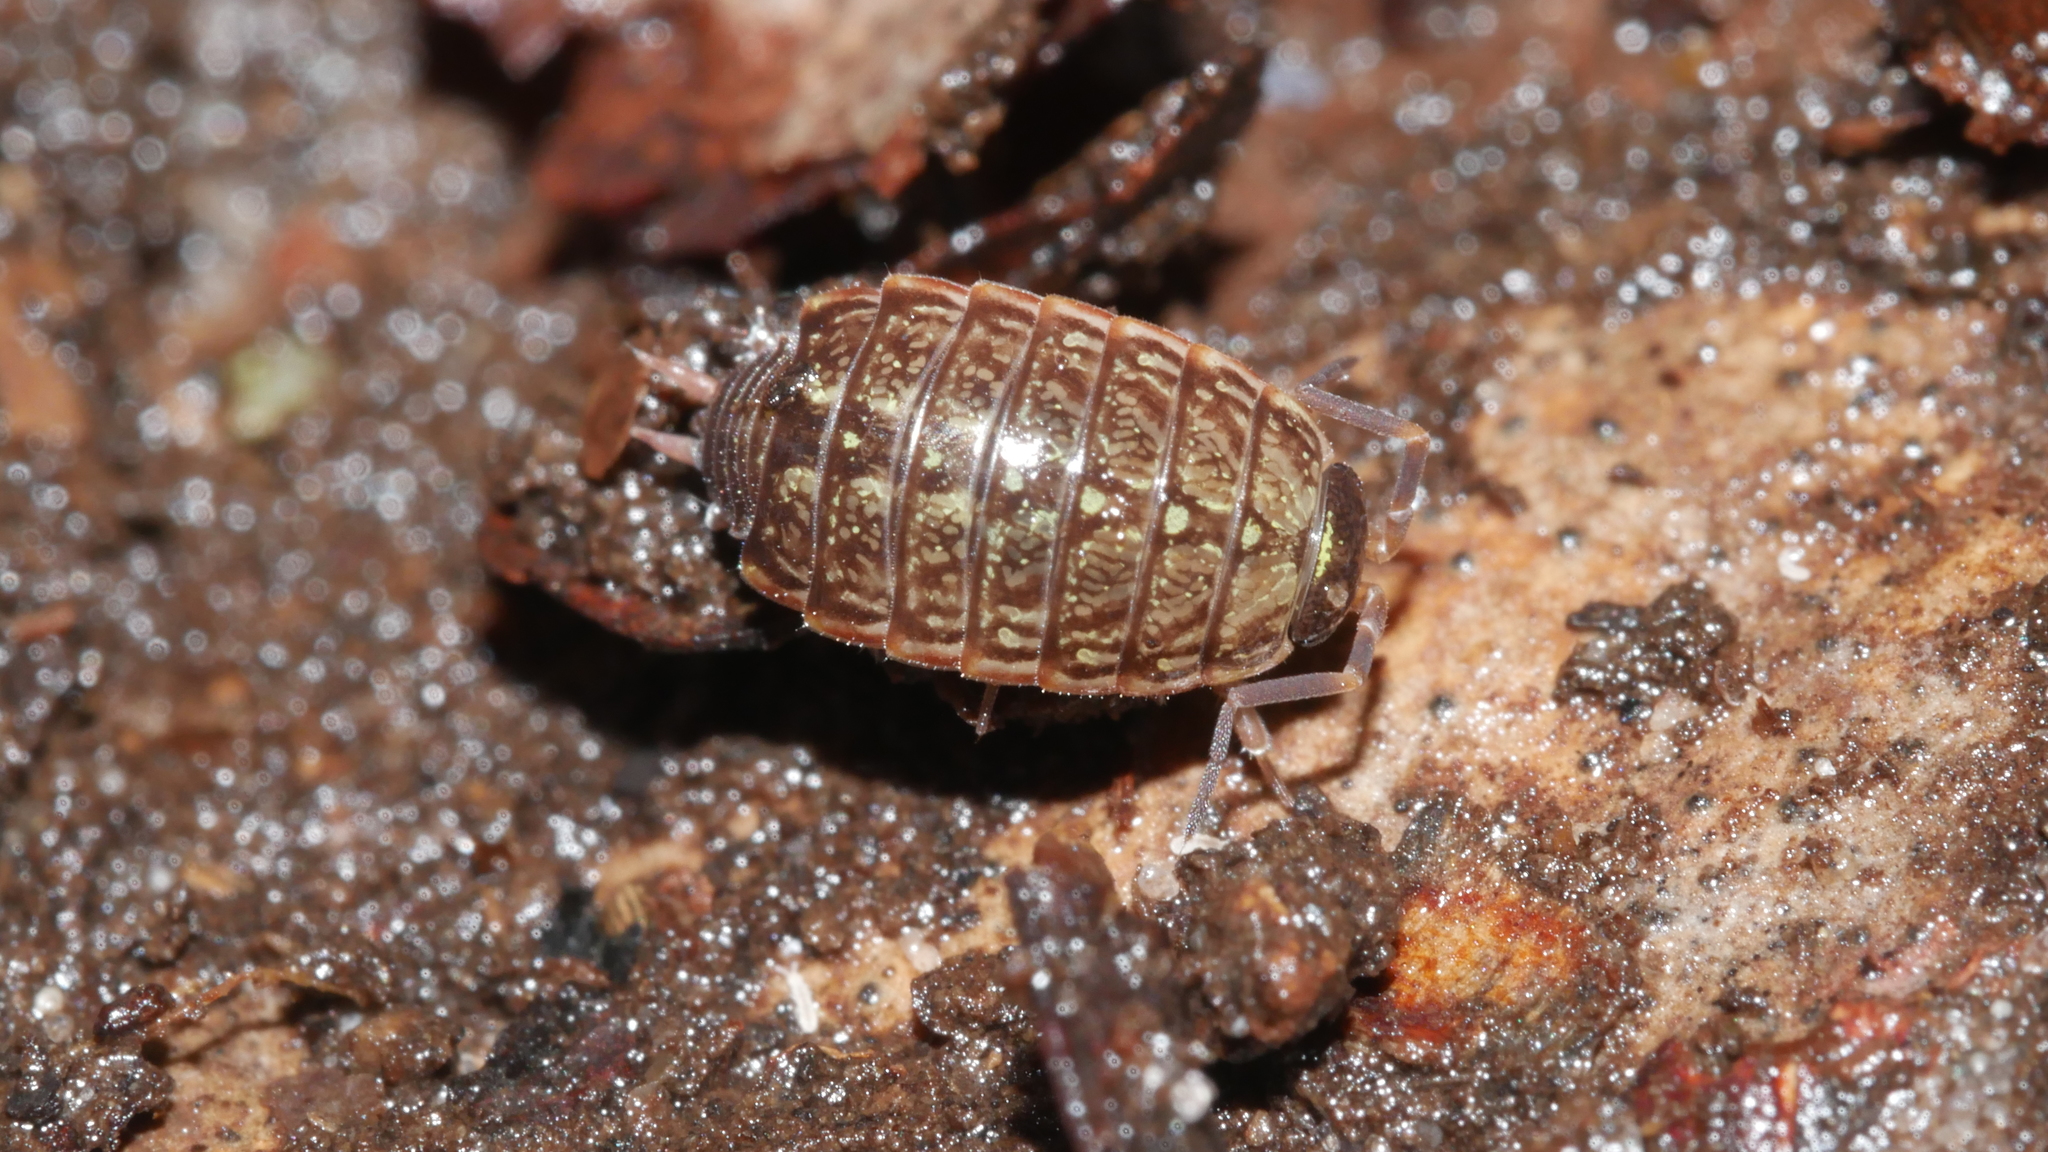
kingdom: Animalia
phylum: Arthropoda
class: Malacostraca
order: Isopoda
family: Philosciidae
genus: Philoscia
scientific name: Philoscia muscorum
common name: Common striped woodlouse
